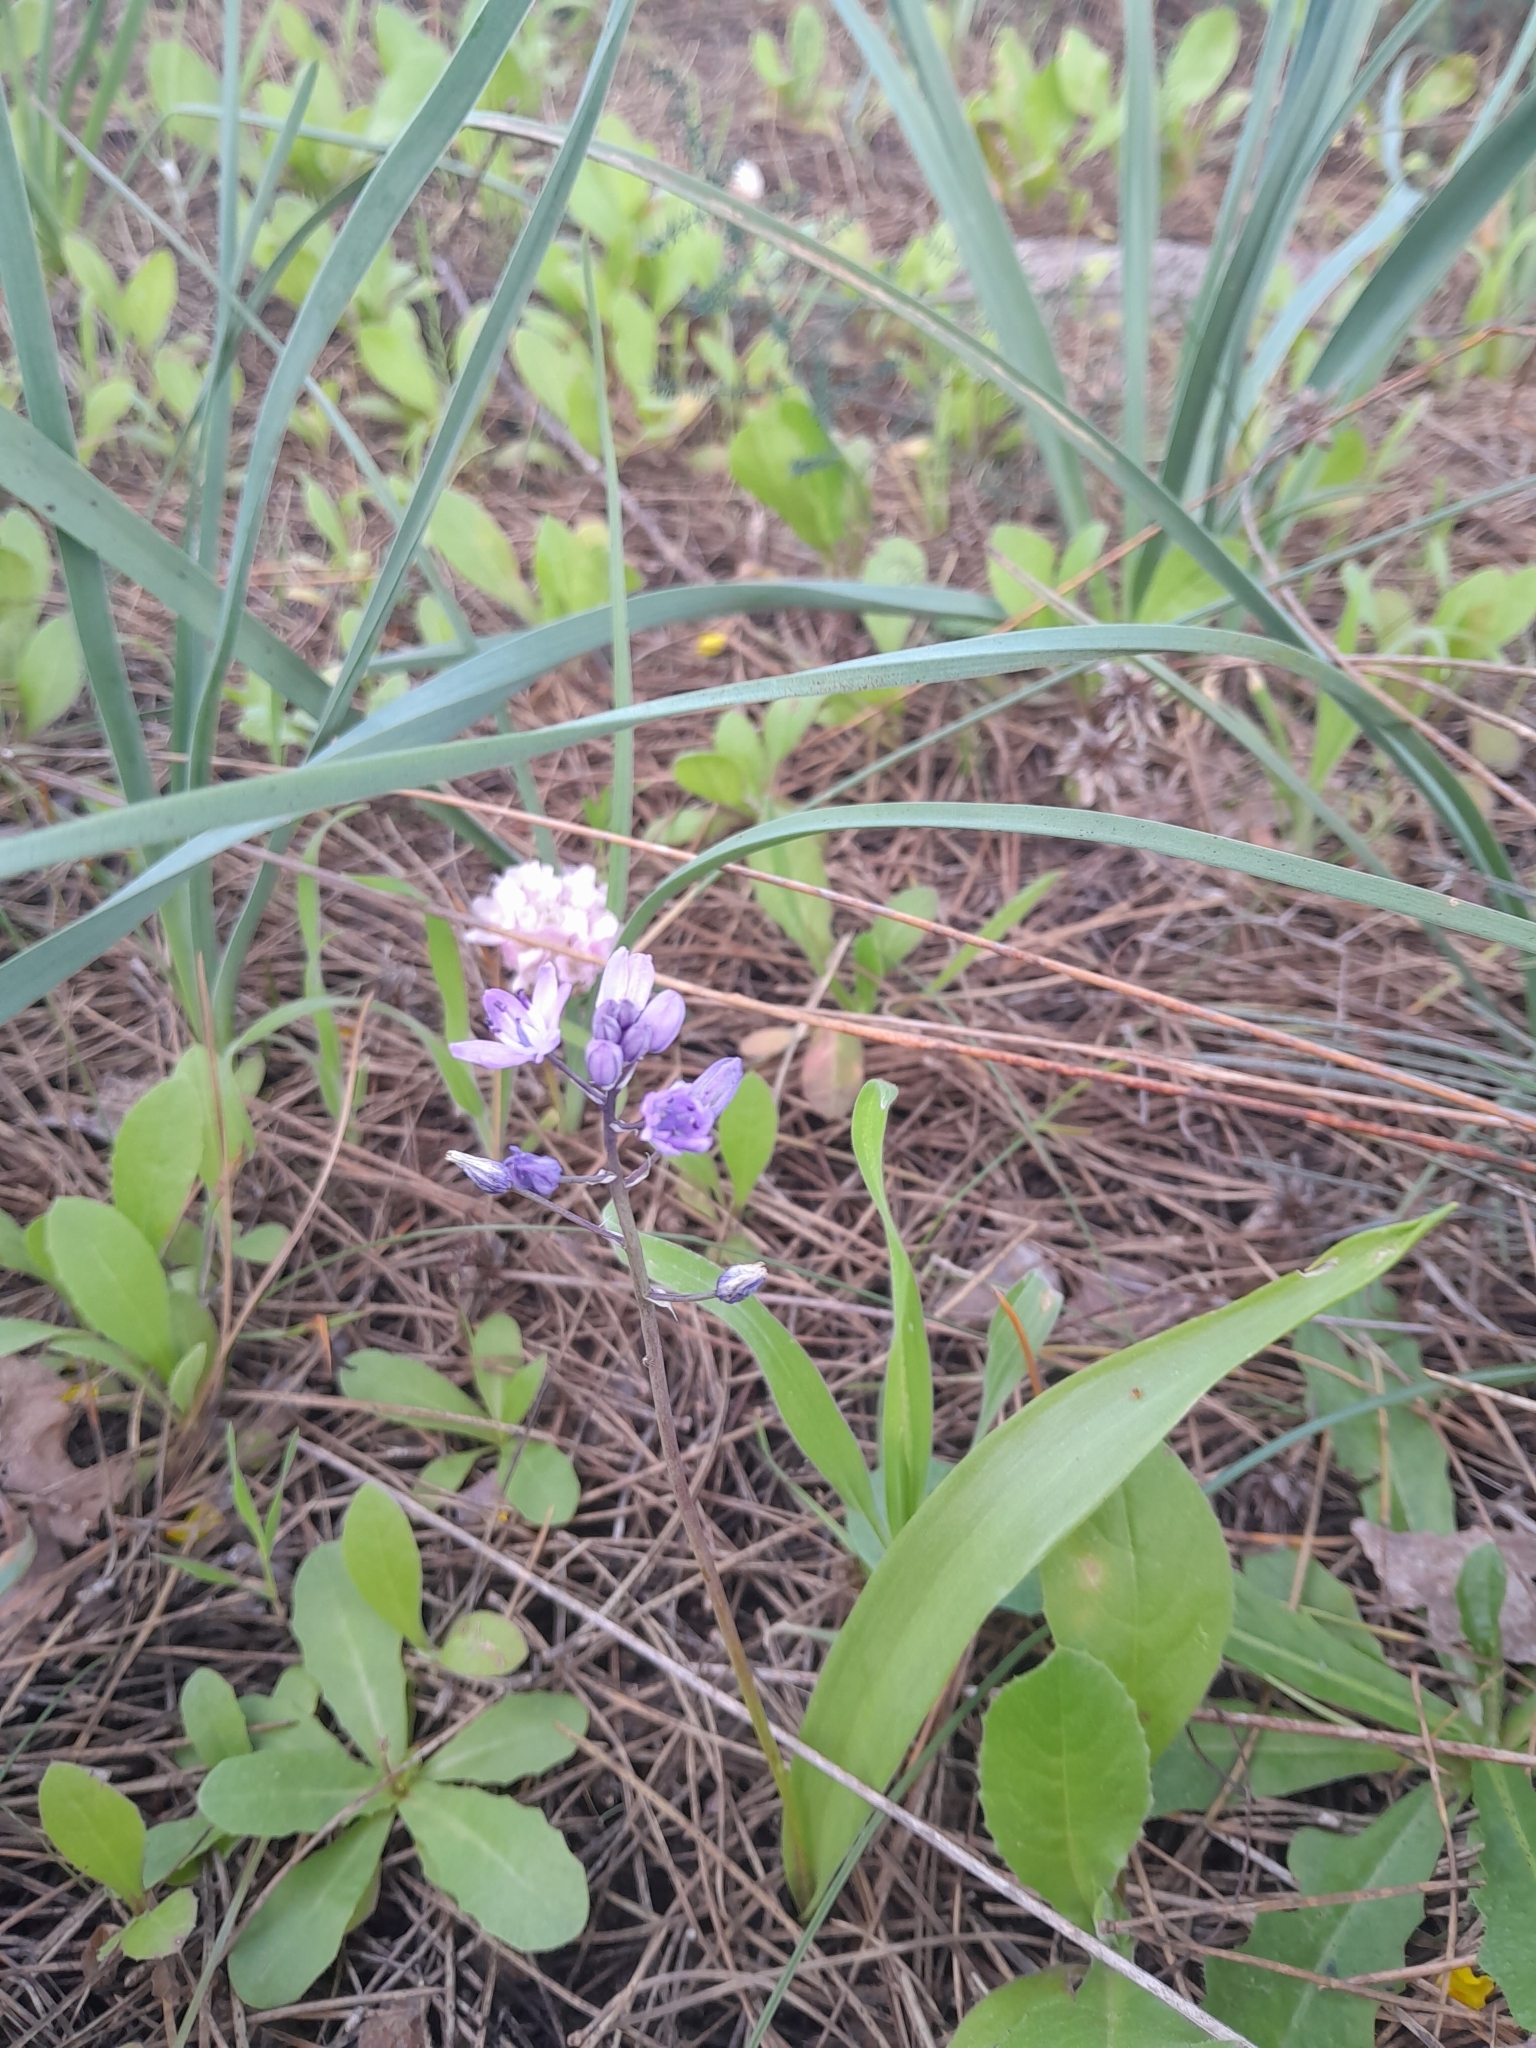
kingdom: Plantae
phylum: Tracheophyta
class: Liliopsida
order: Asparagales
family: Asparagaceae
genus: Scilla
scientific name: Scilla monophyllos
